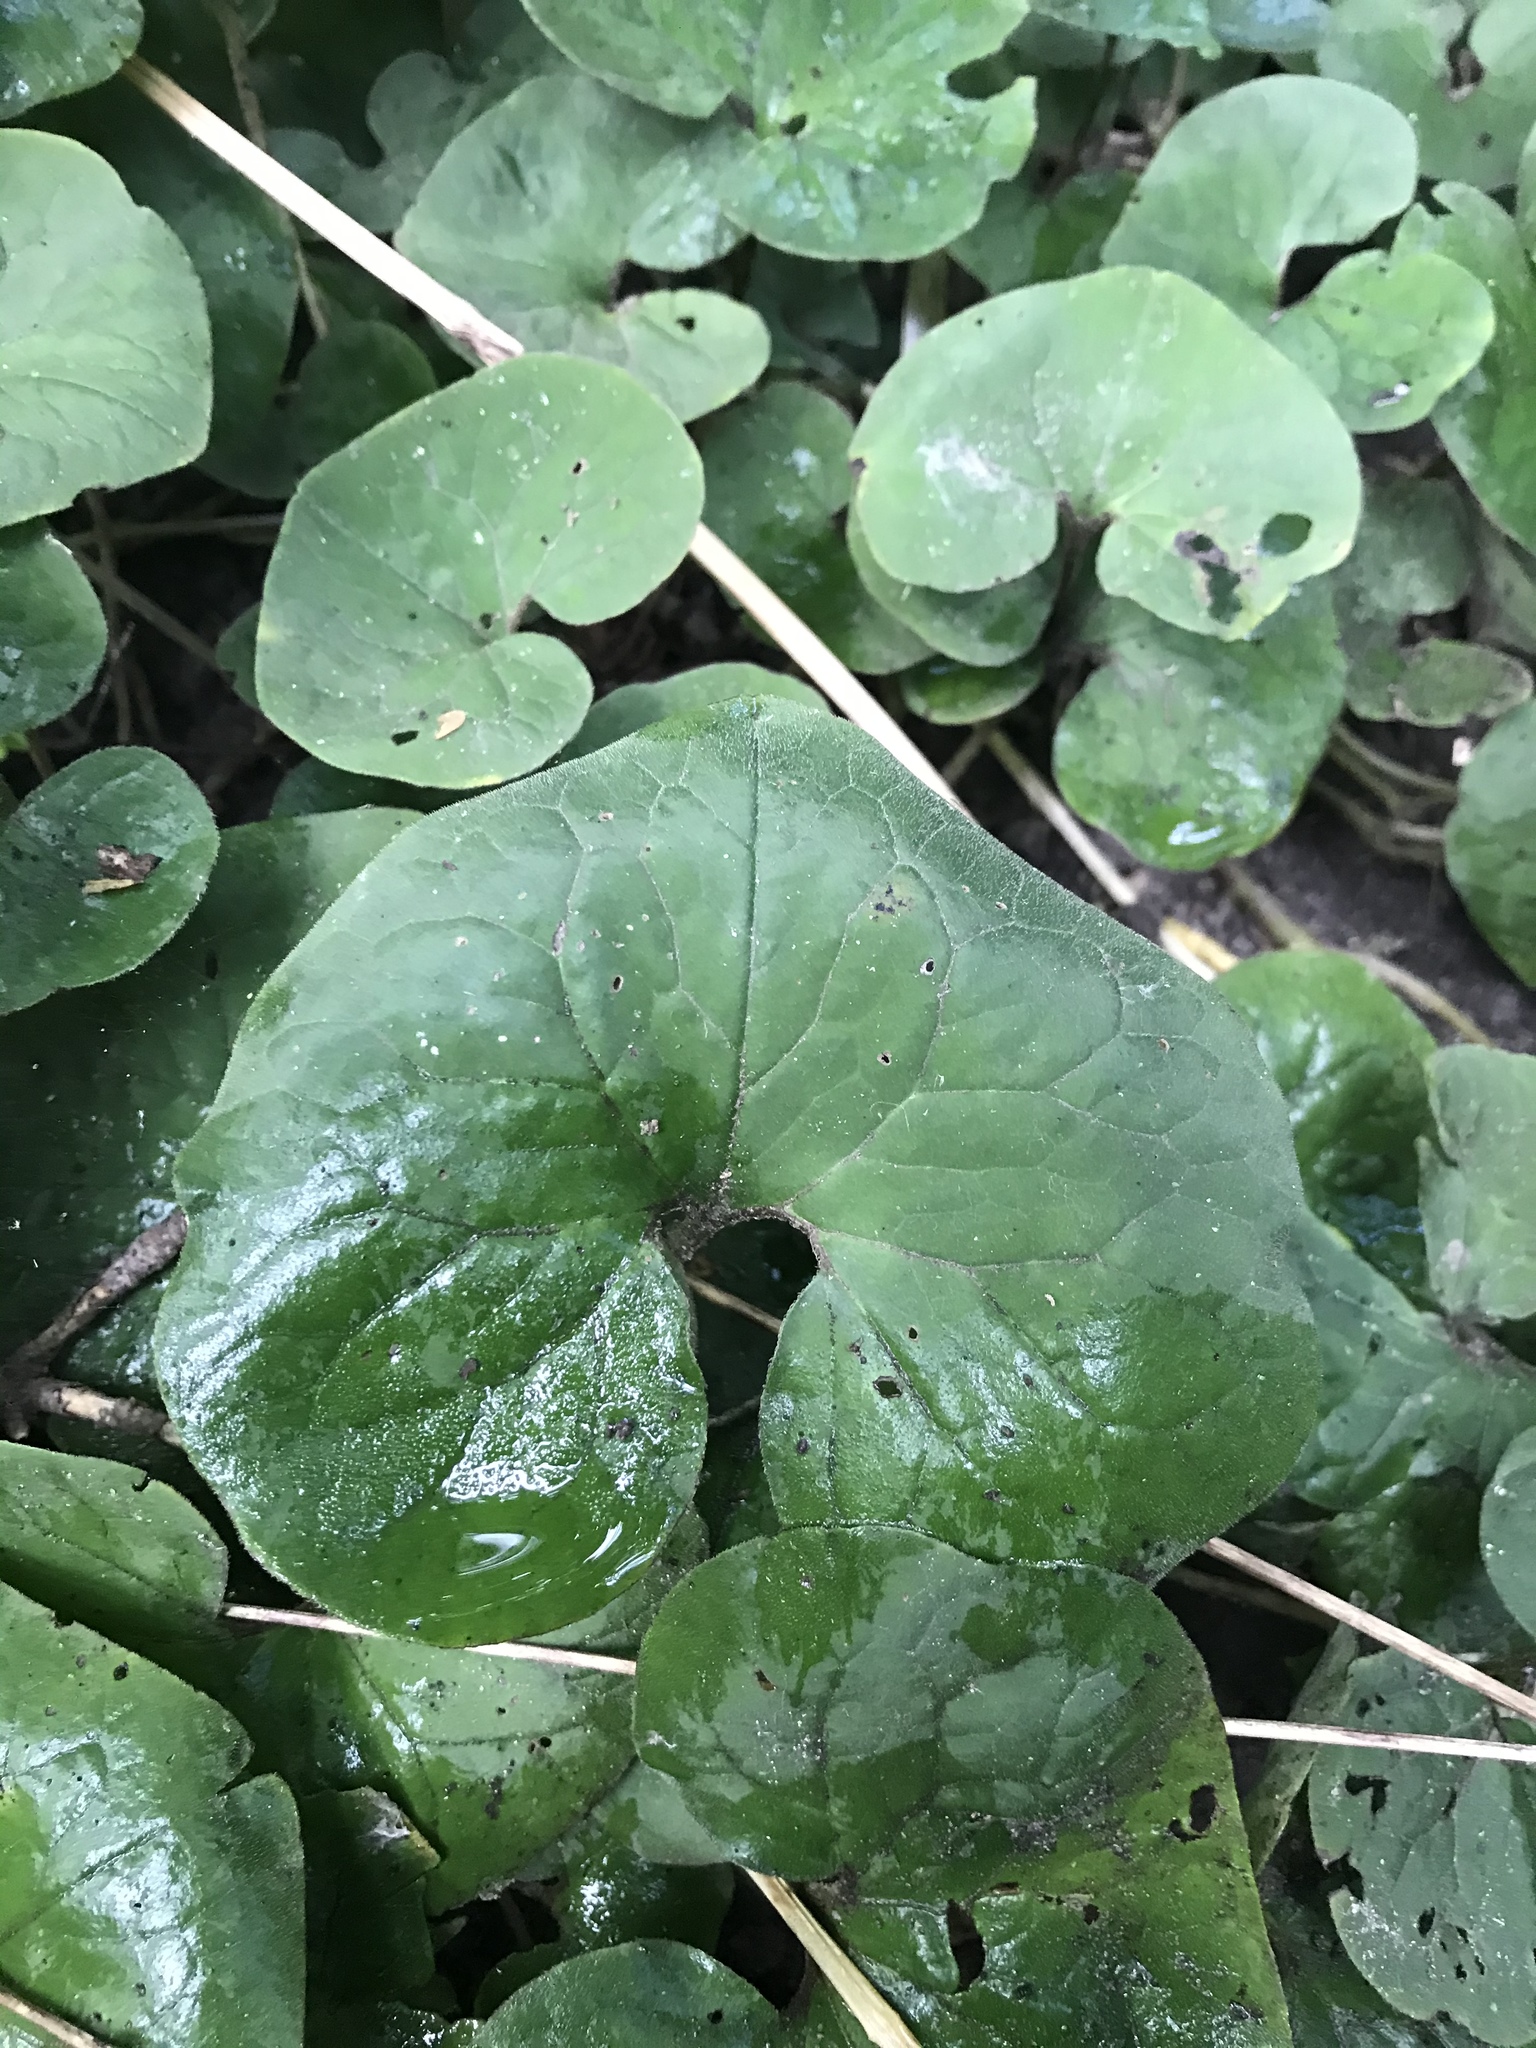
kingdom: Plantae
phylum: Tracheophyta
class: Magnoliopsida
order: Piperales
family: Aristolochiaceae
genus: Asarum
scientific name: Asarum canadense
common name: Wild ginger
